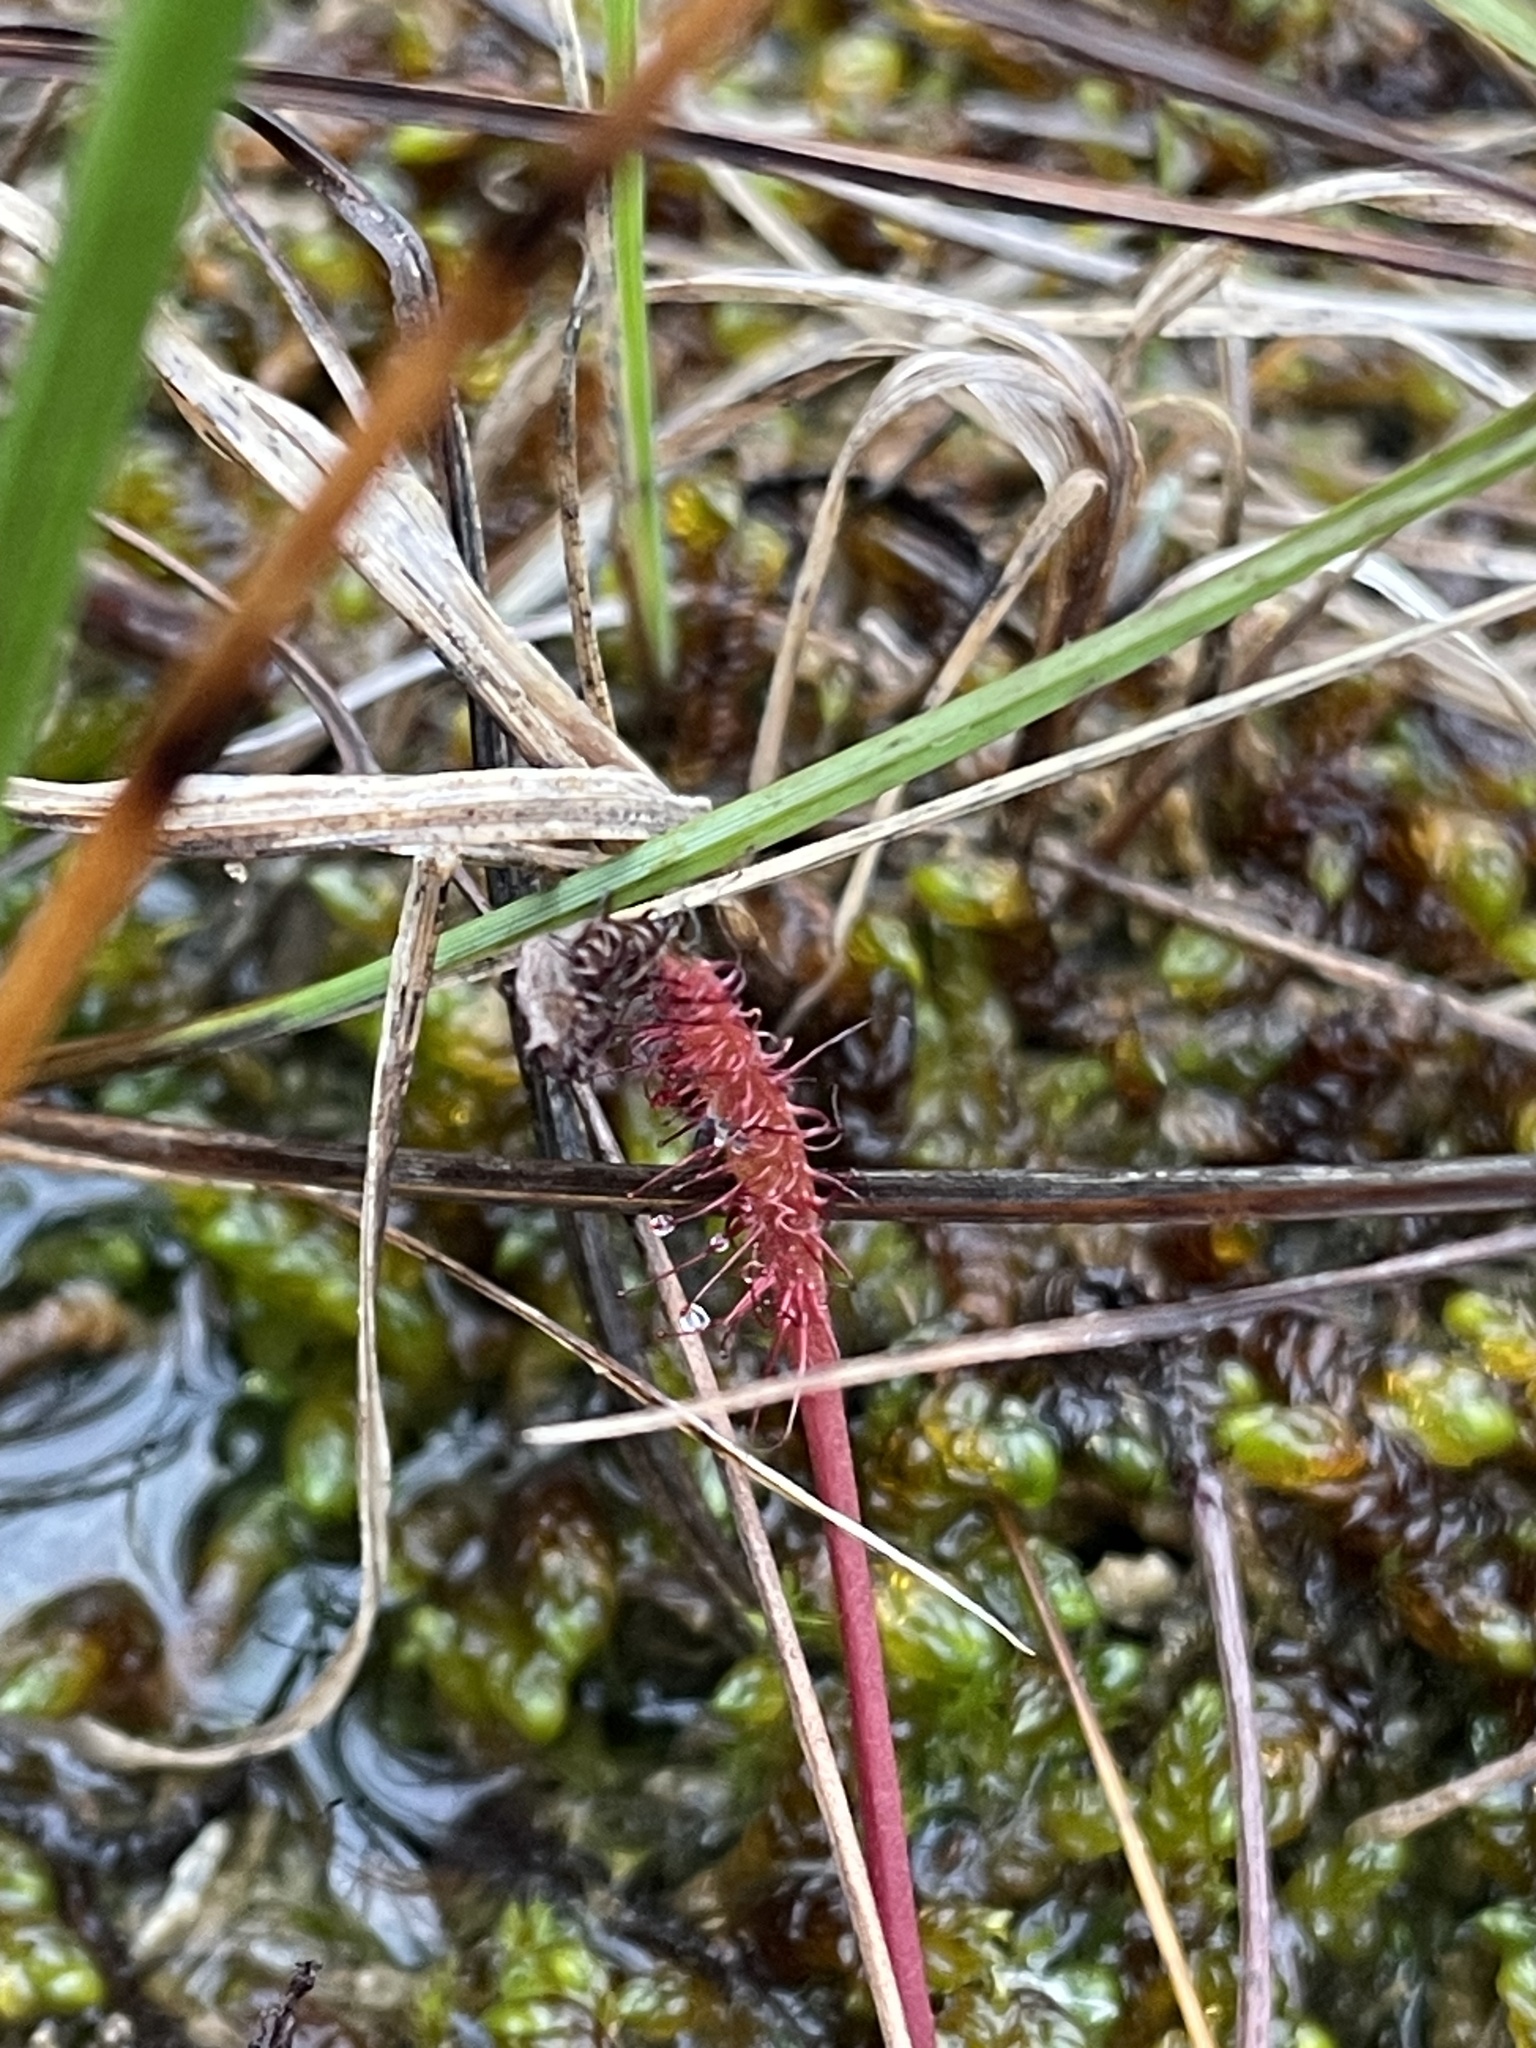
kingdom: Plantae
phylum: Tracheophyta
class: Magnoliopsida
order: Caryophyllales
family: Droseraceae
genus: Drosera
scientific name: Drosera linearis
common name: Linear-leaved sundew
